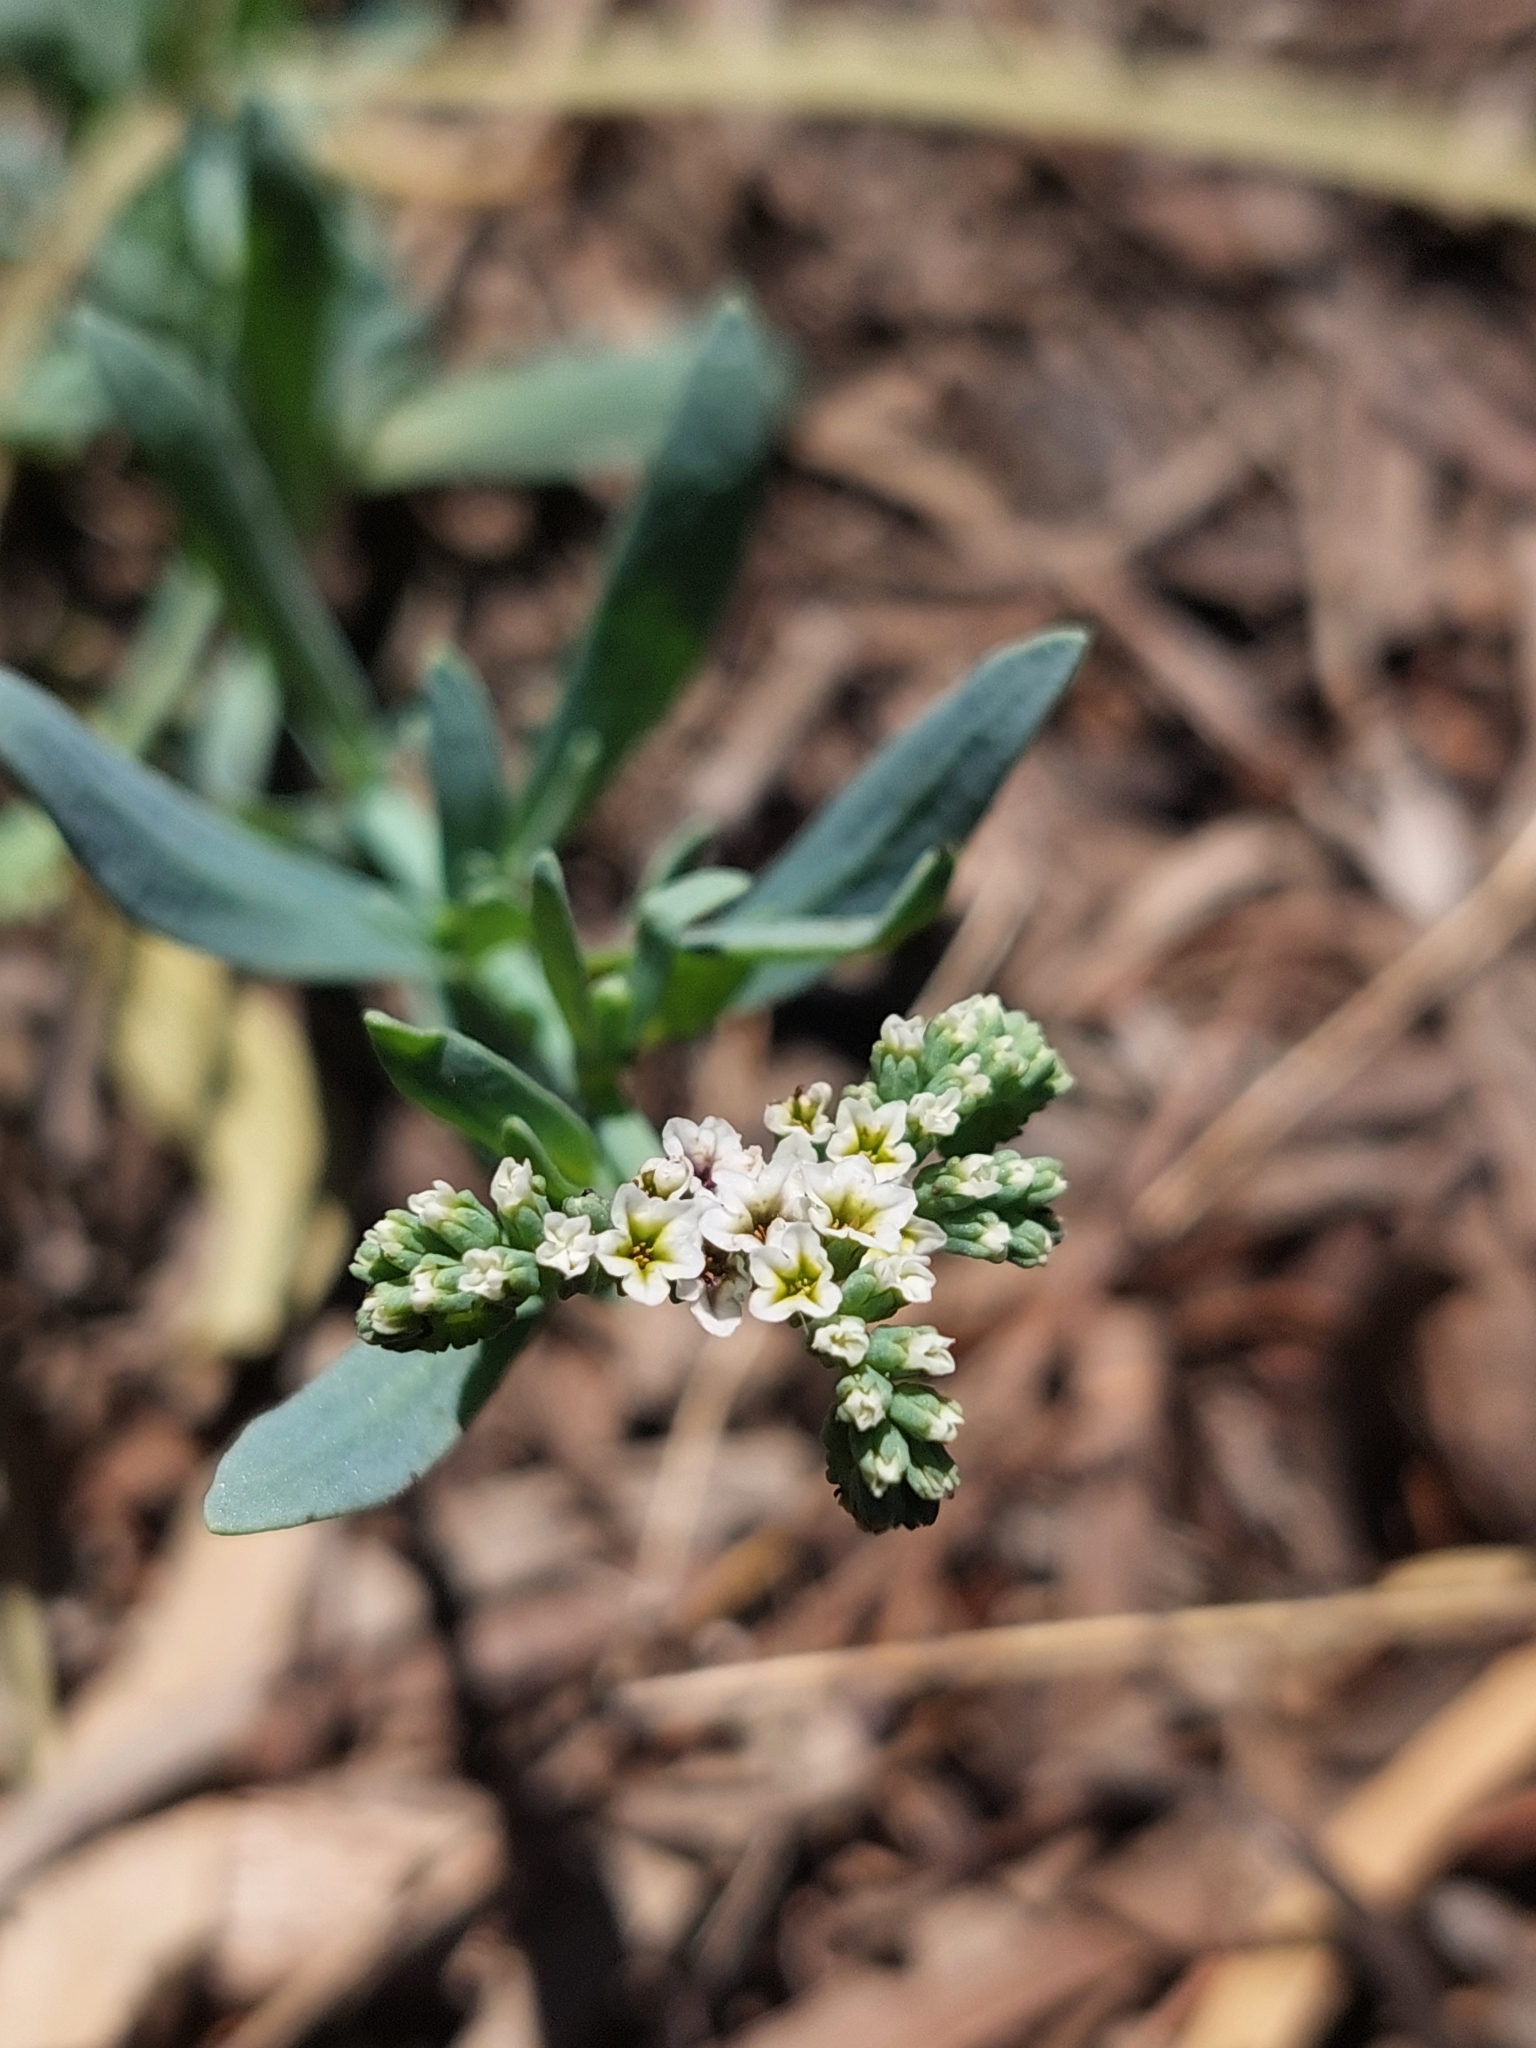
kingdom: Plantae
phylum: Tracheophyta
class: Magnoliopsida
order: Boraginales
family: Heliotropiaceae
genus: Heliotropium
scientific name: Heliotropium curassavicum
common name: Seaside heliotrope
